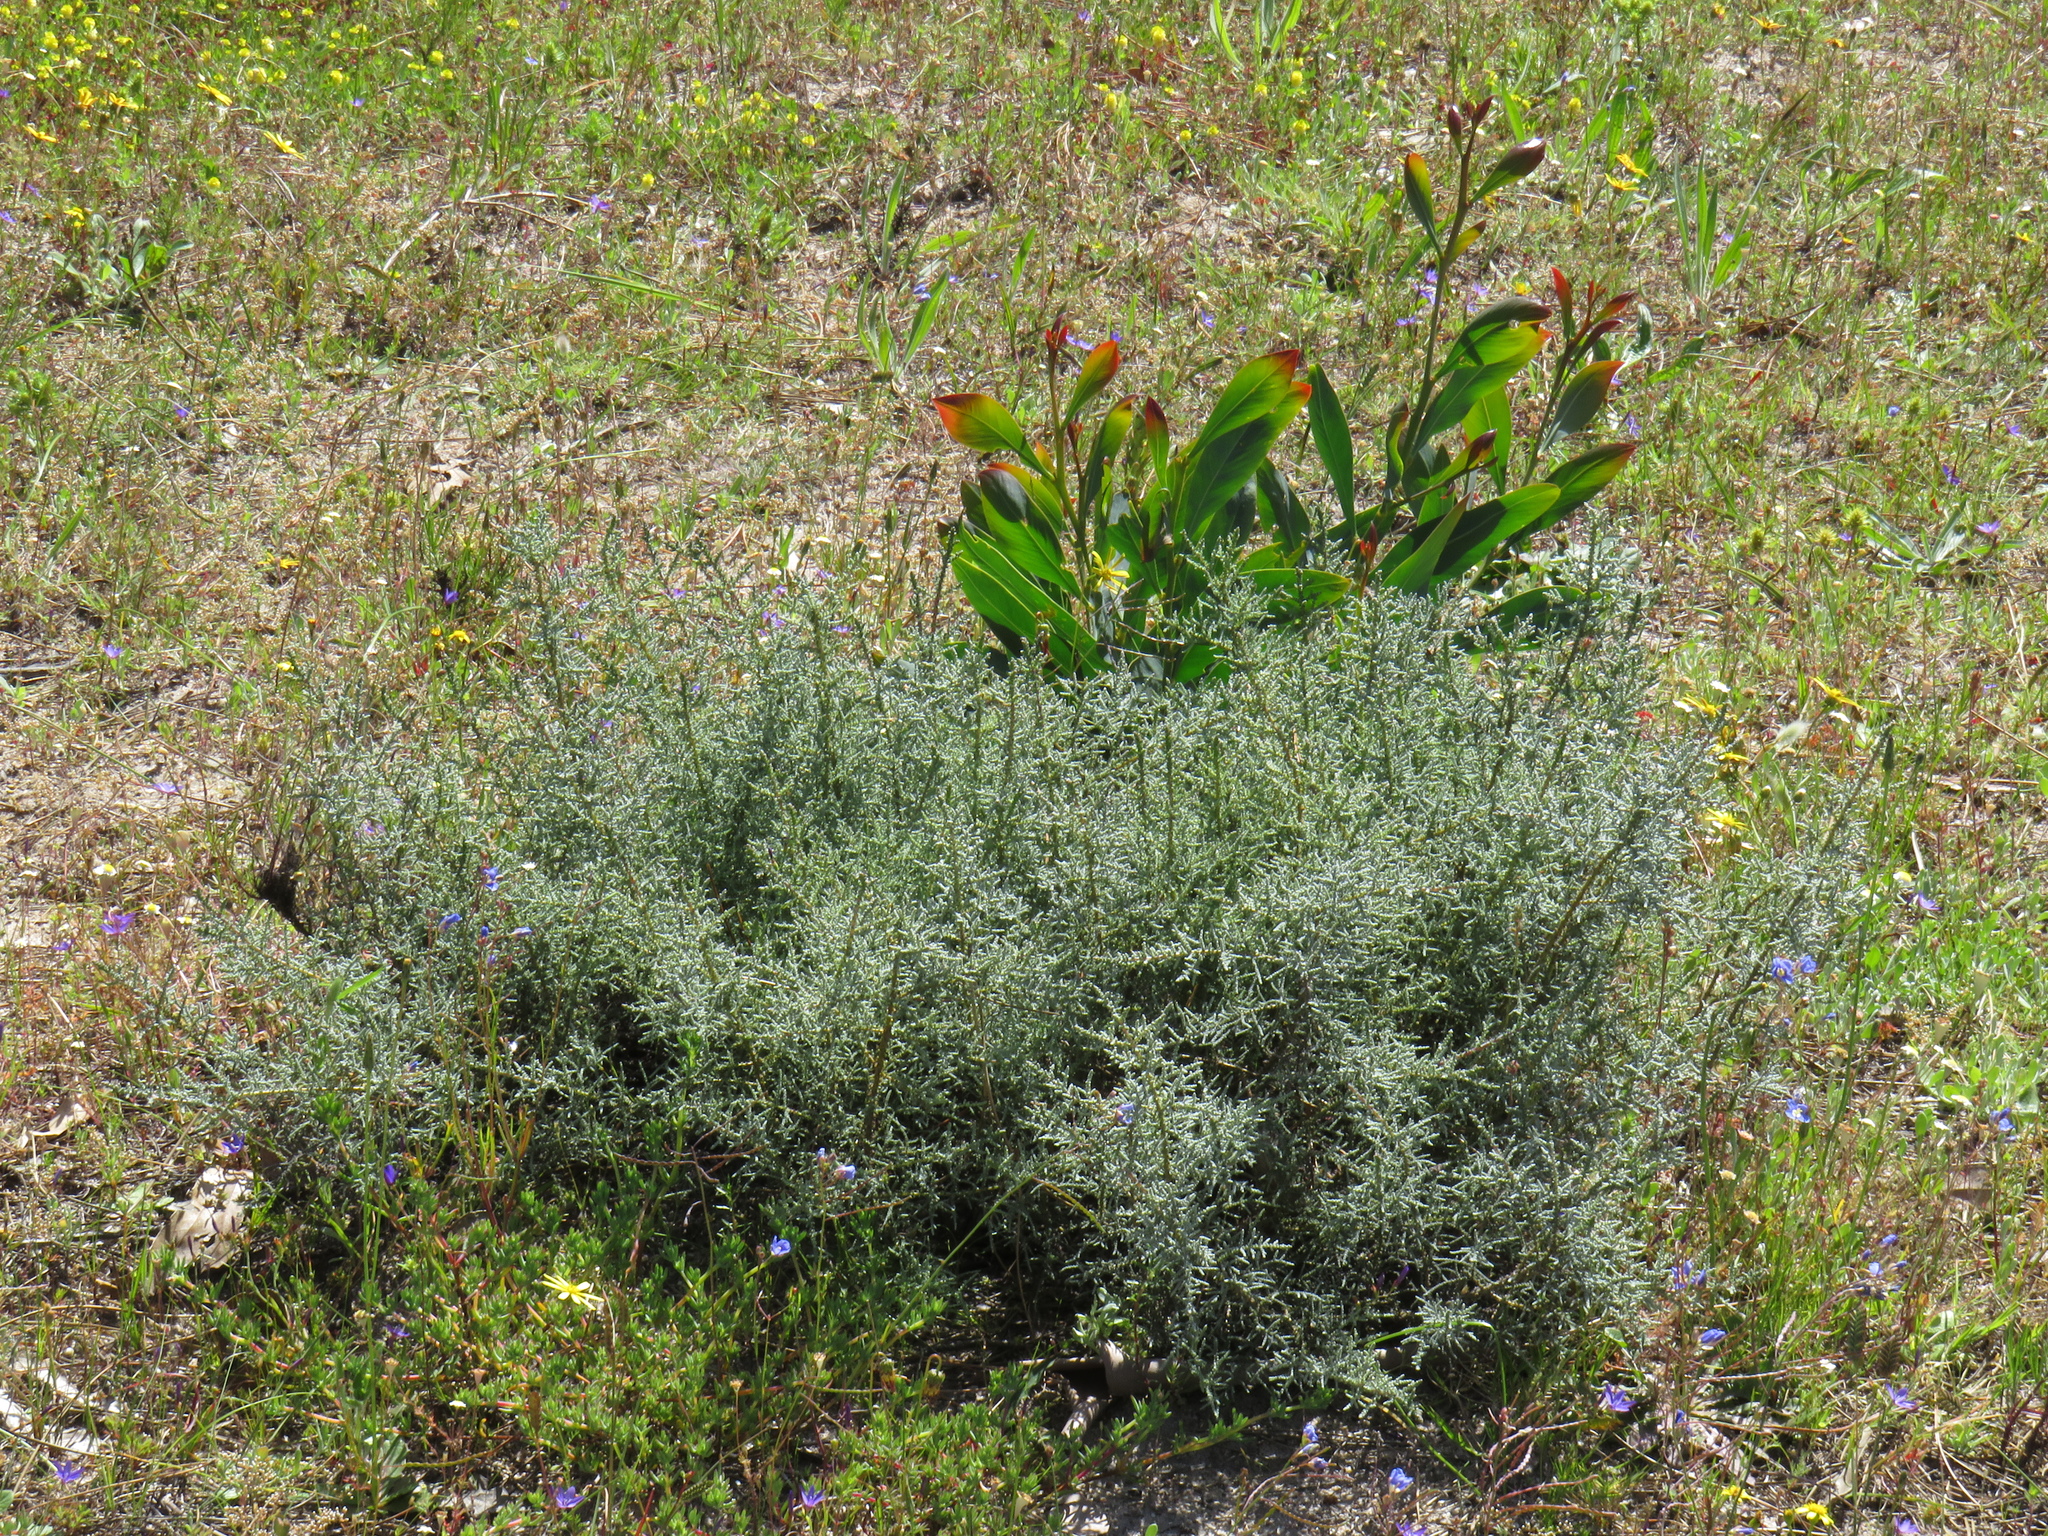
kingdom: Plantae
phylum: Tracheophyta
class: Magnoliopsida
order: Asterales
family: Asteraceae
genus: Seriphium
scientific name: Seriphium plumosum
